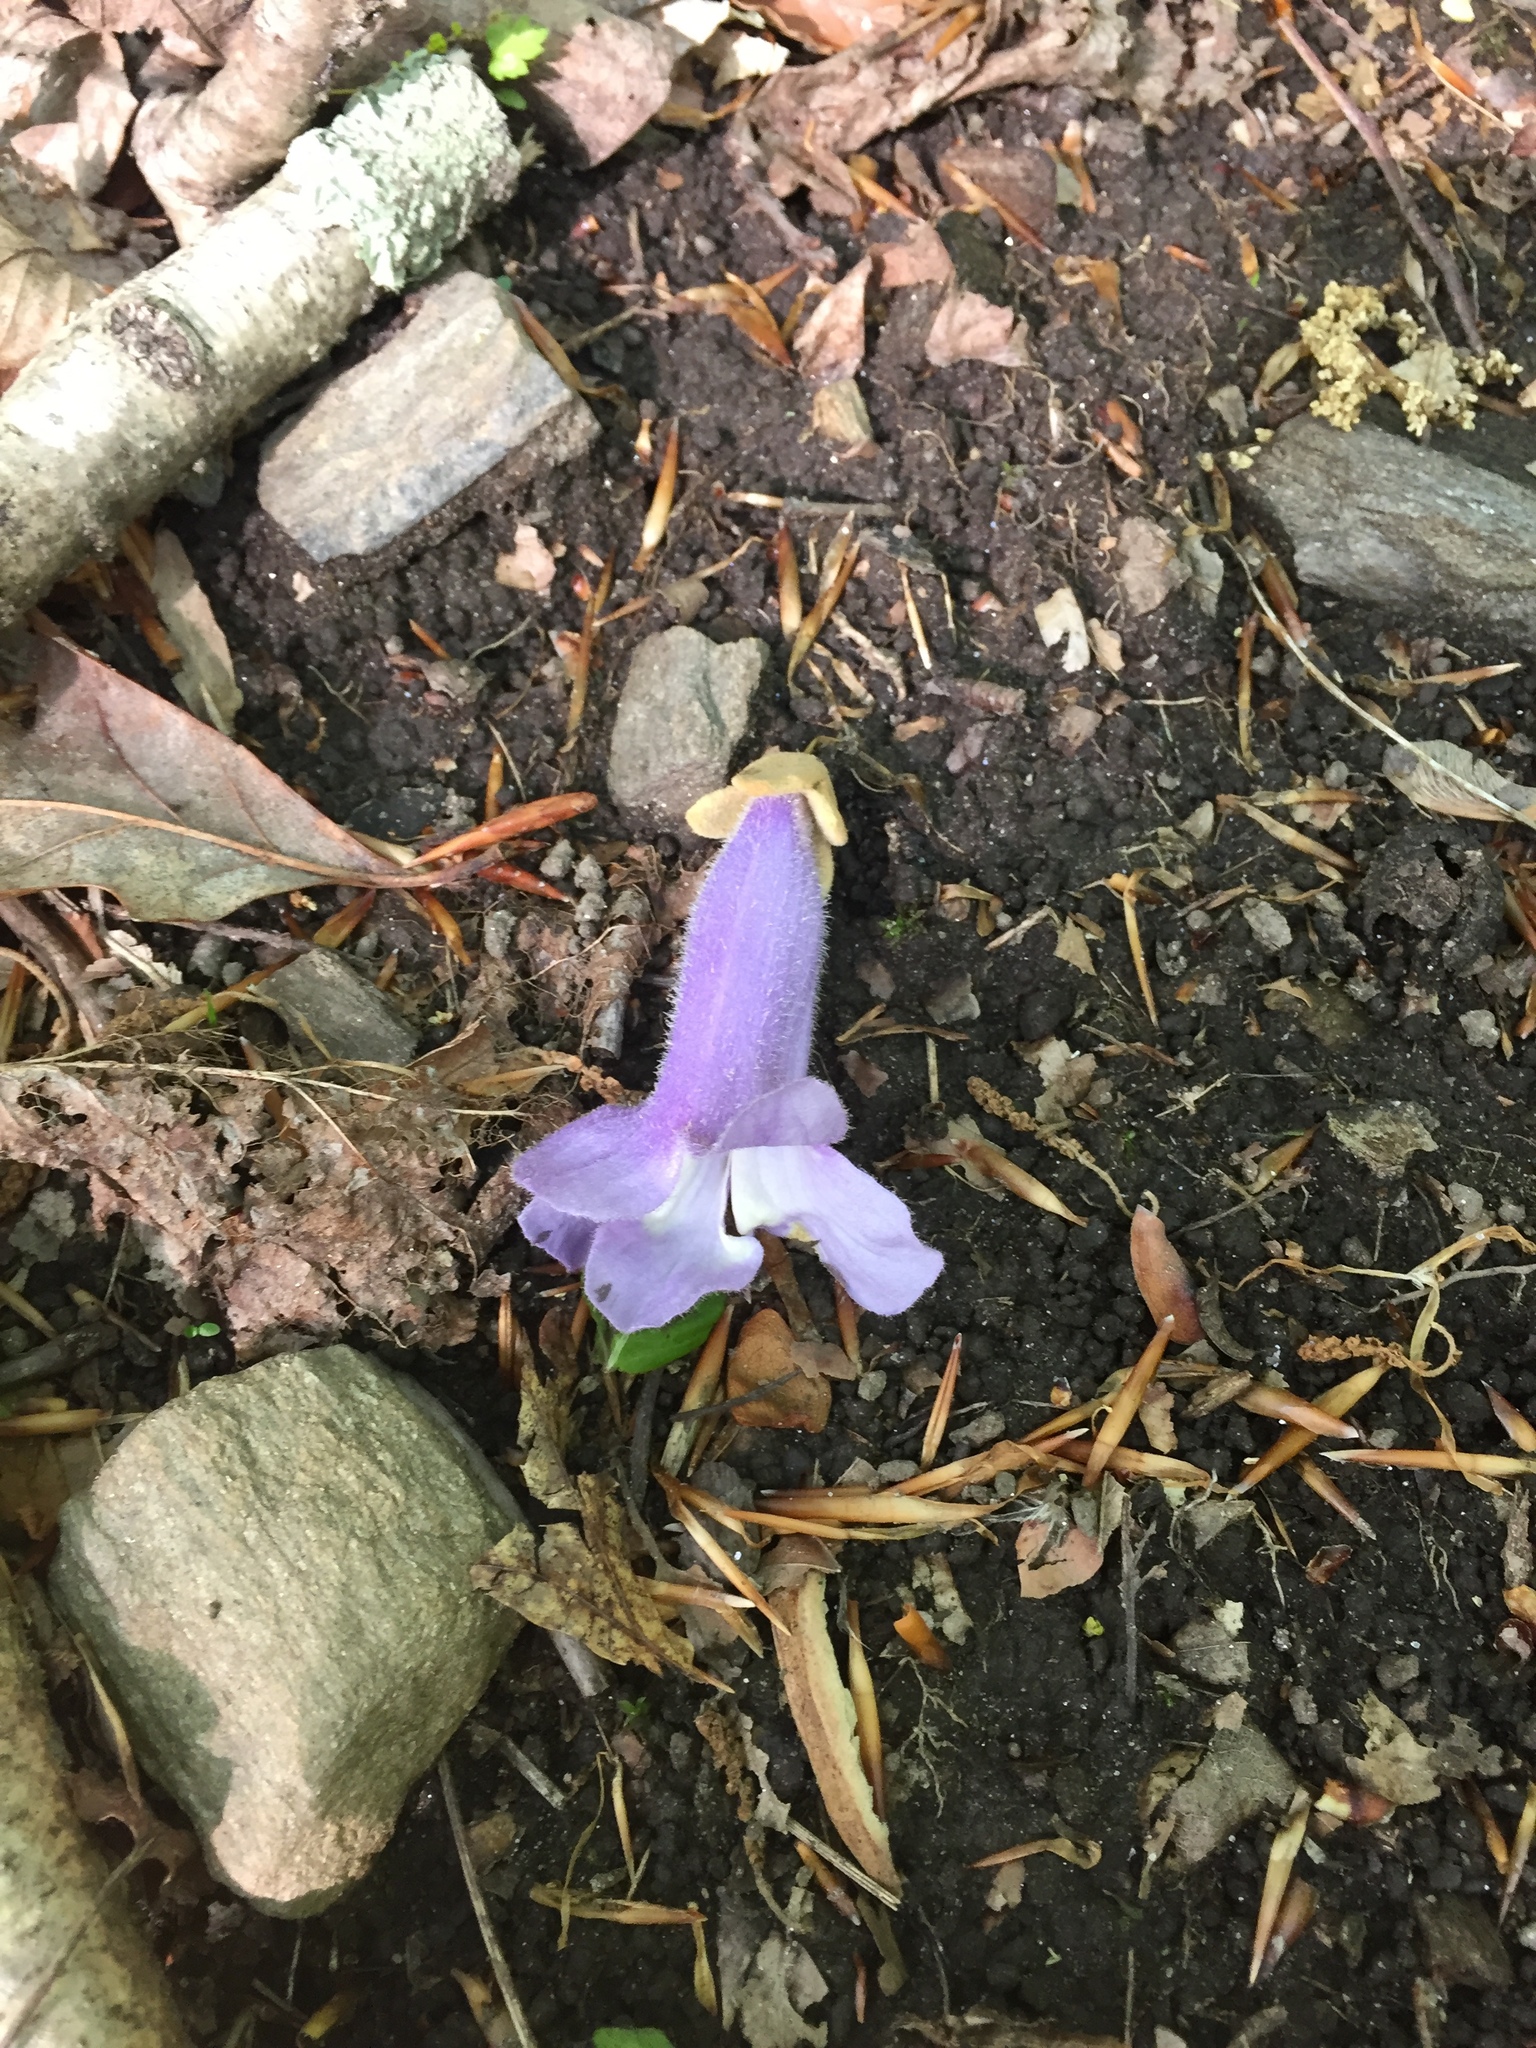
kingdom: Plantae
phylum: Tracheophyta
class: Magnoliopsida
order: Lamiales
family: Paulowniaceae
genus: Paulownia
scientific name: Paulownia tomentosa
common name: Foxglove-tree
